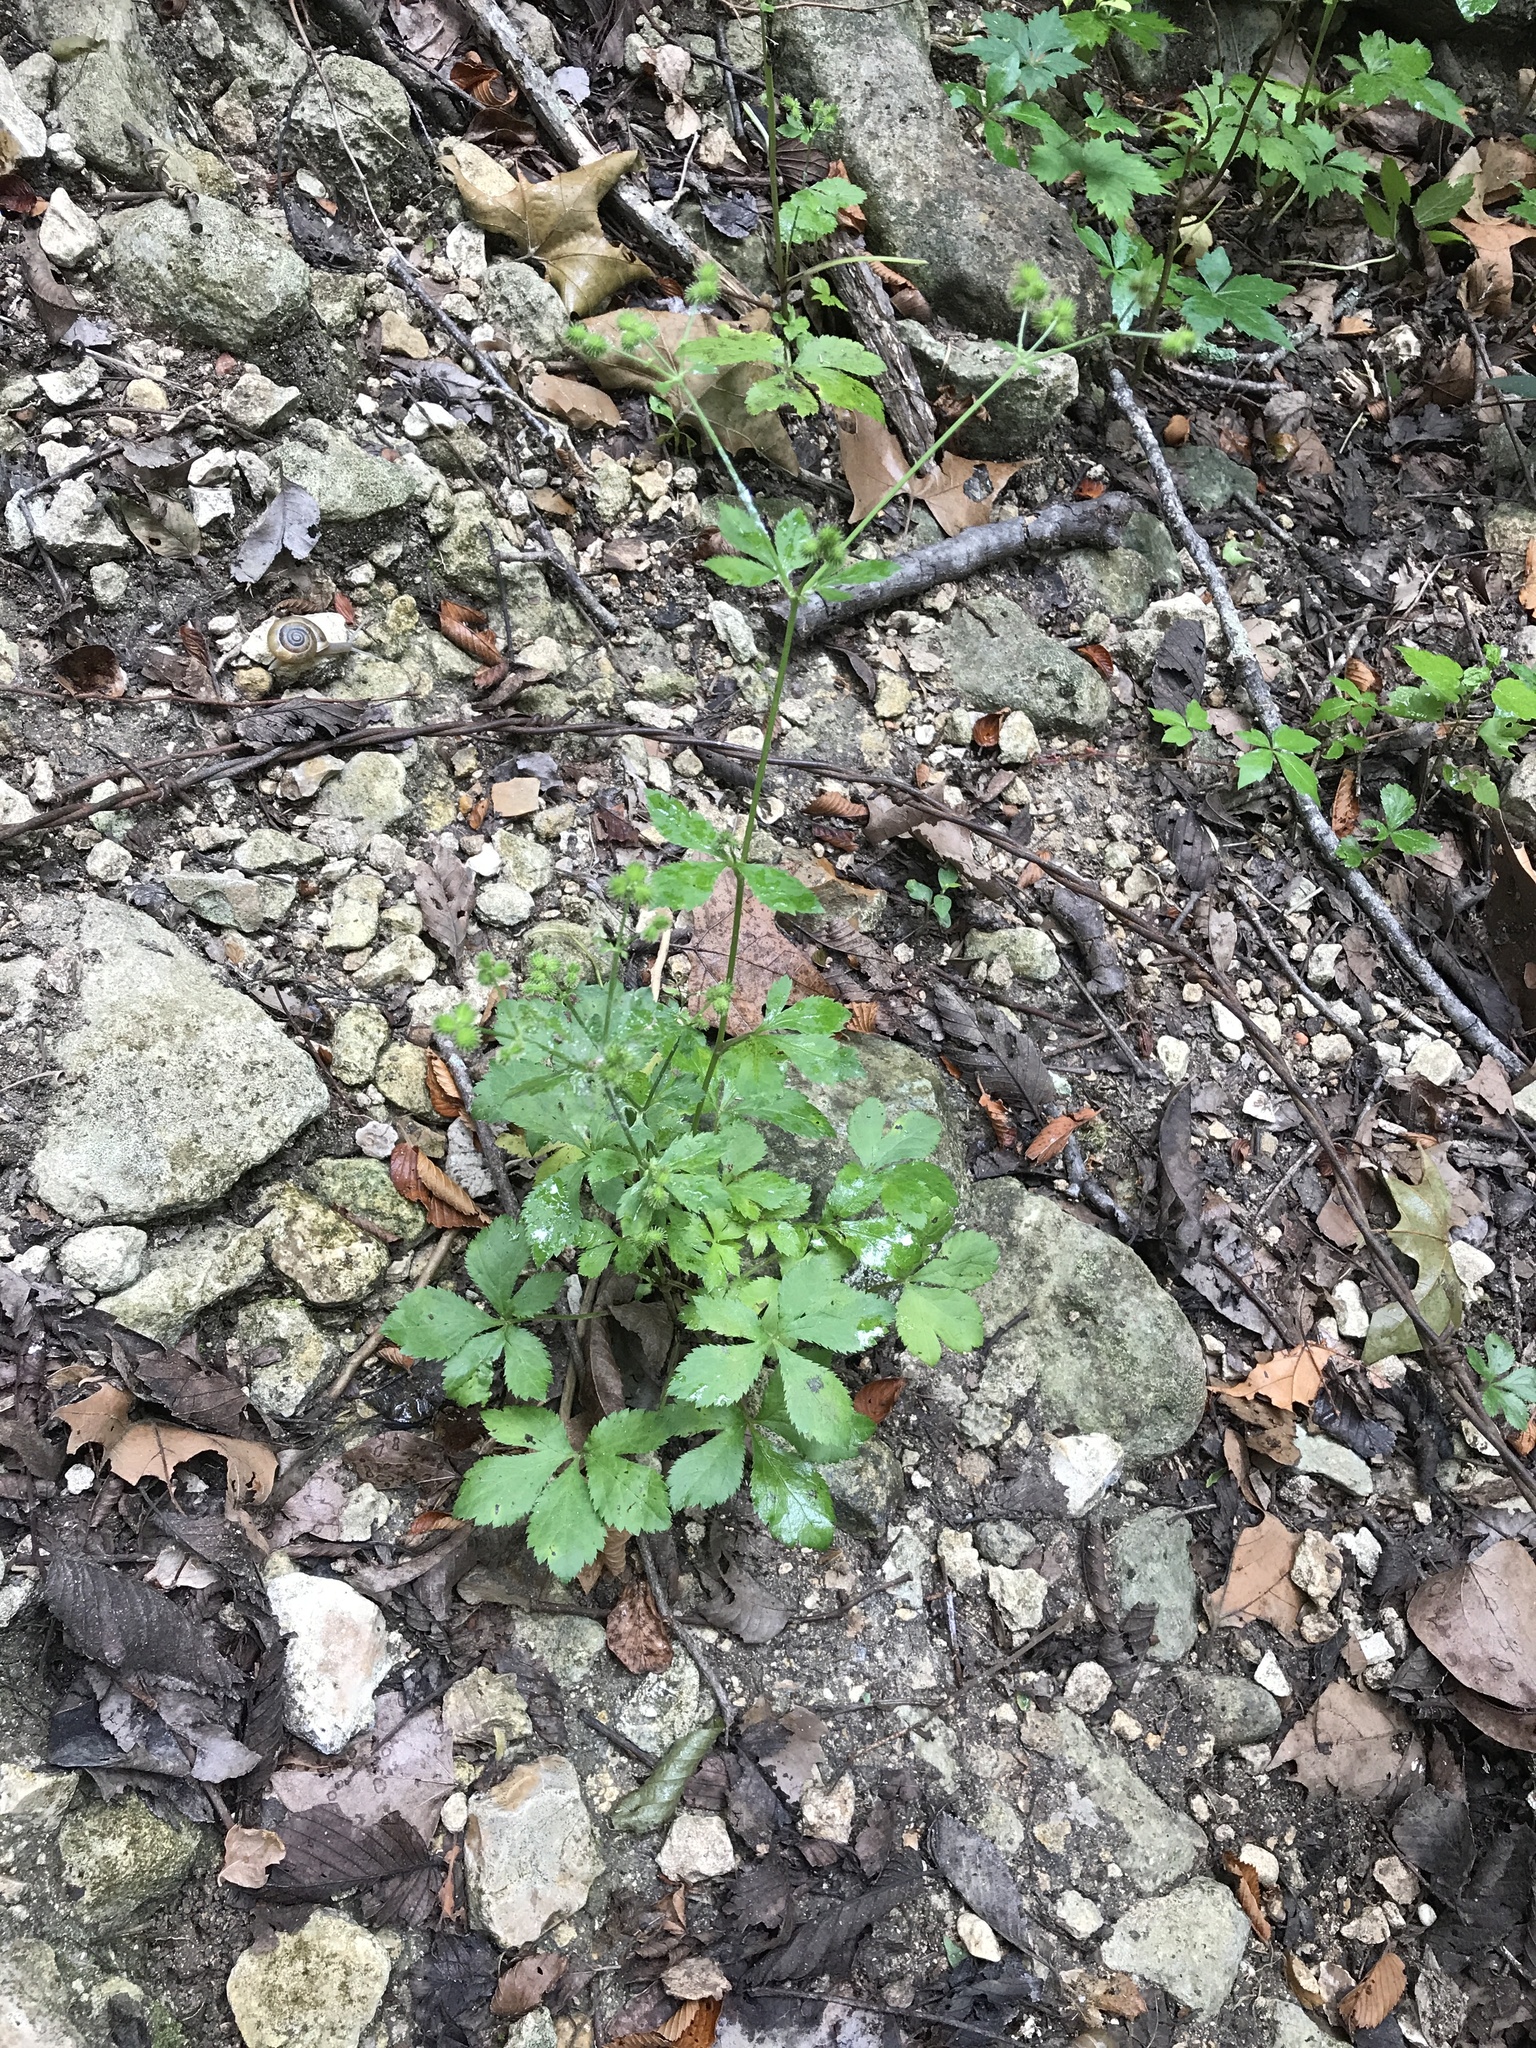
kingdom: Plantae
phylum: Tracheophyta
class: Magnoliopsida
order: Apiales
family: Apiaceae
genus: Sanicula
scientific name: Sanicula canadensis
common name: Canada sanicle
